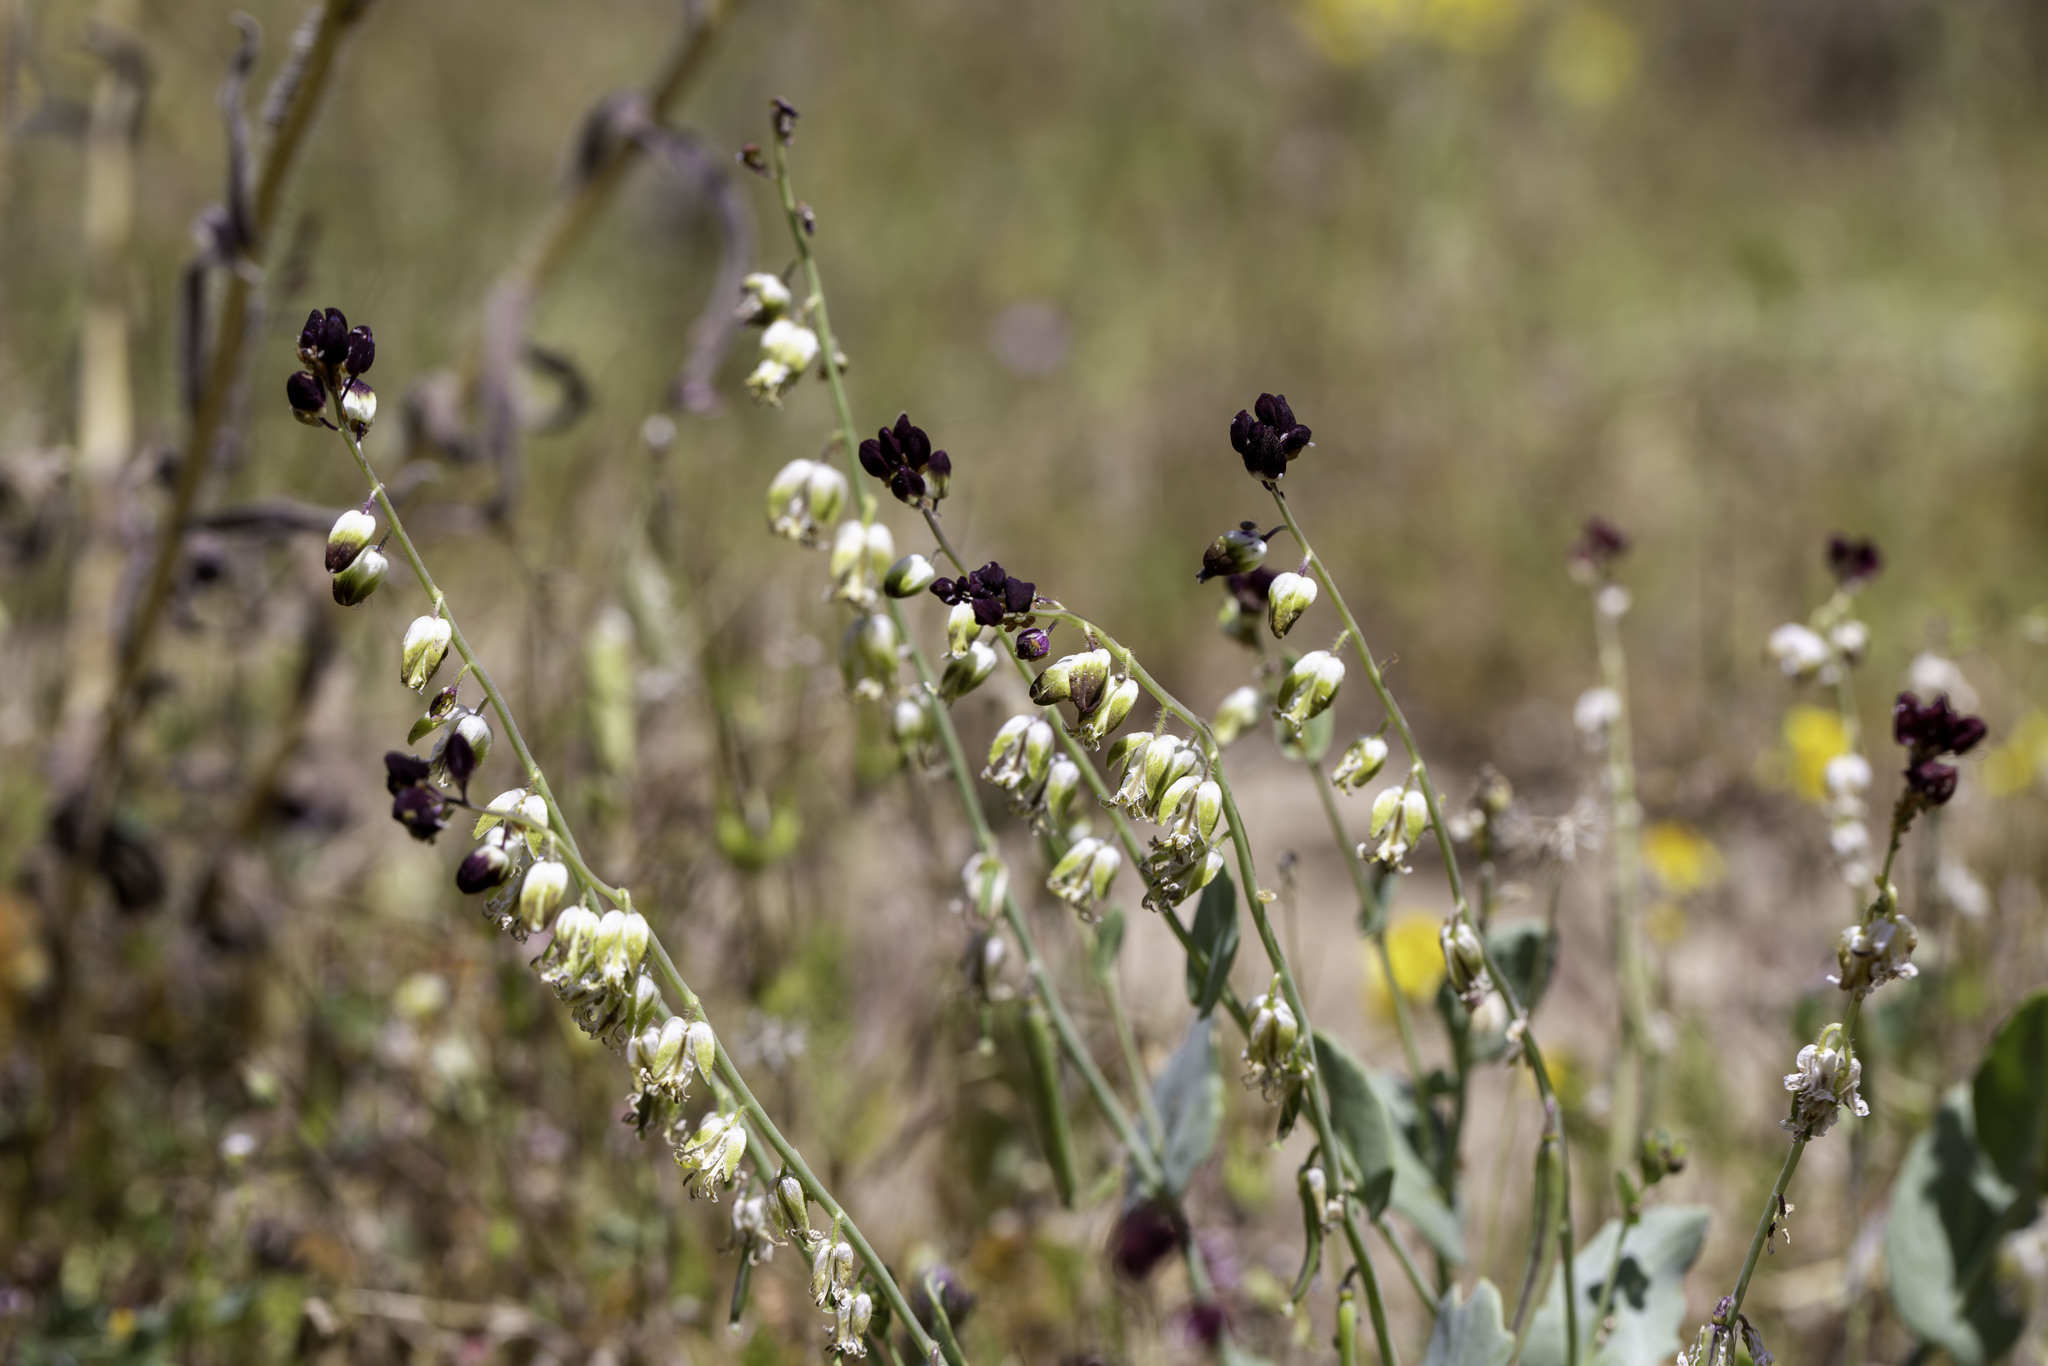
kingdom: Plantae
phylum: Tracheophyta
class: Magnoliopsida
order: Brassicales
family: Brassicaceae
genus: Streptanthus
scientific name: Streptanthus californicus
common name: California-jewel-flower
